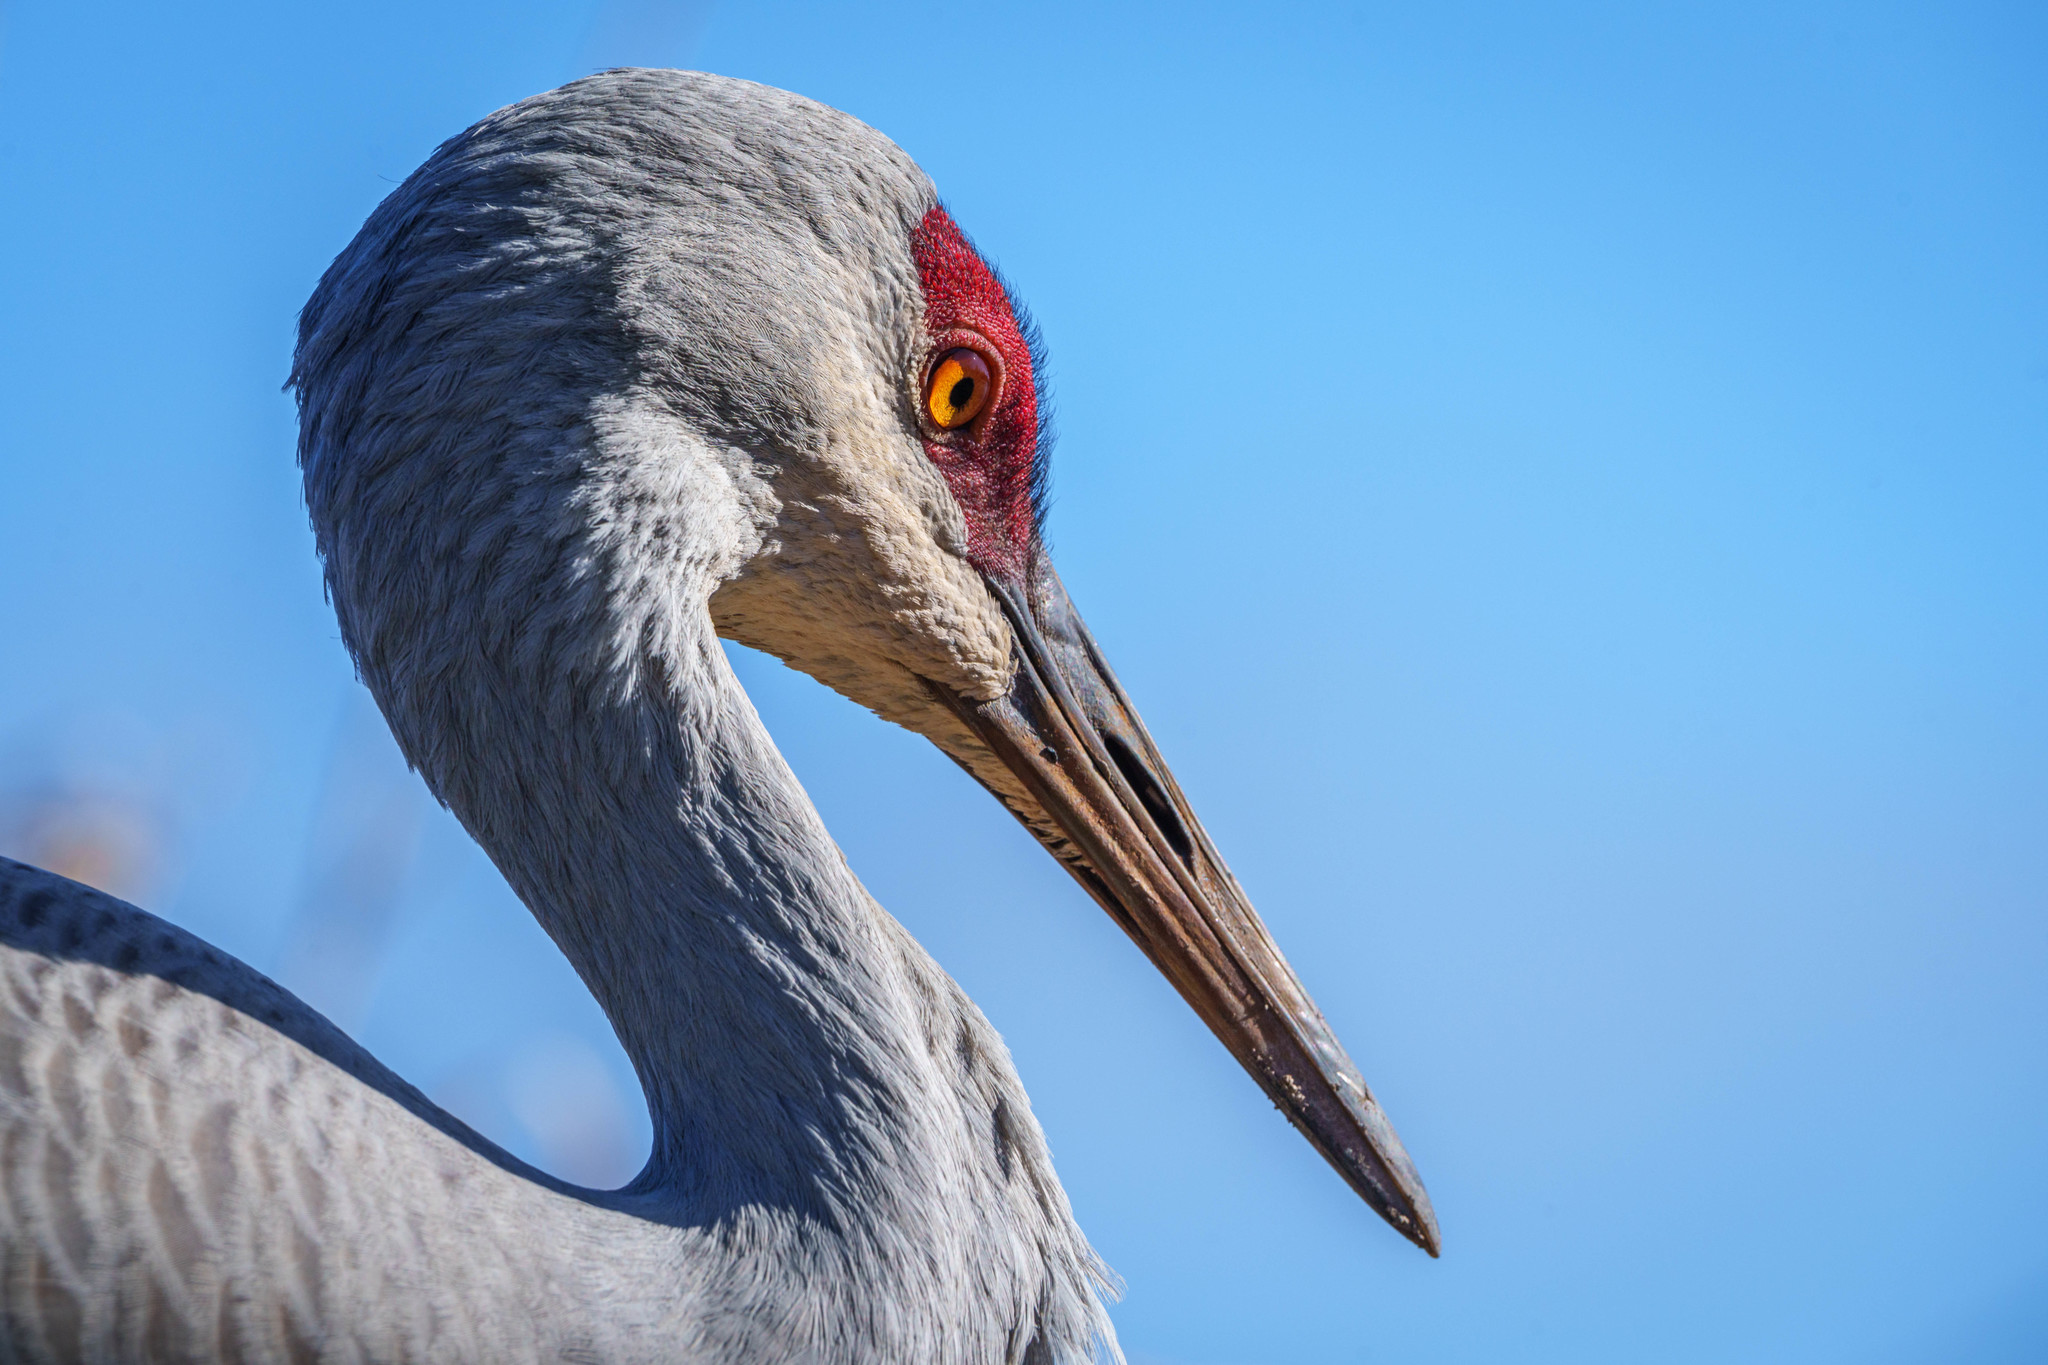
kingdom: Animalia
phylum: Chordata
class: Aves
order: Gruiformes
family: Gruidae
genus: Grus
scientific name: Grus canadensis
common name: Sandhill crane
